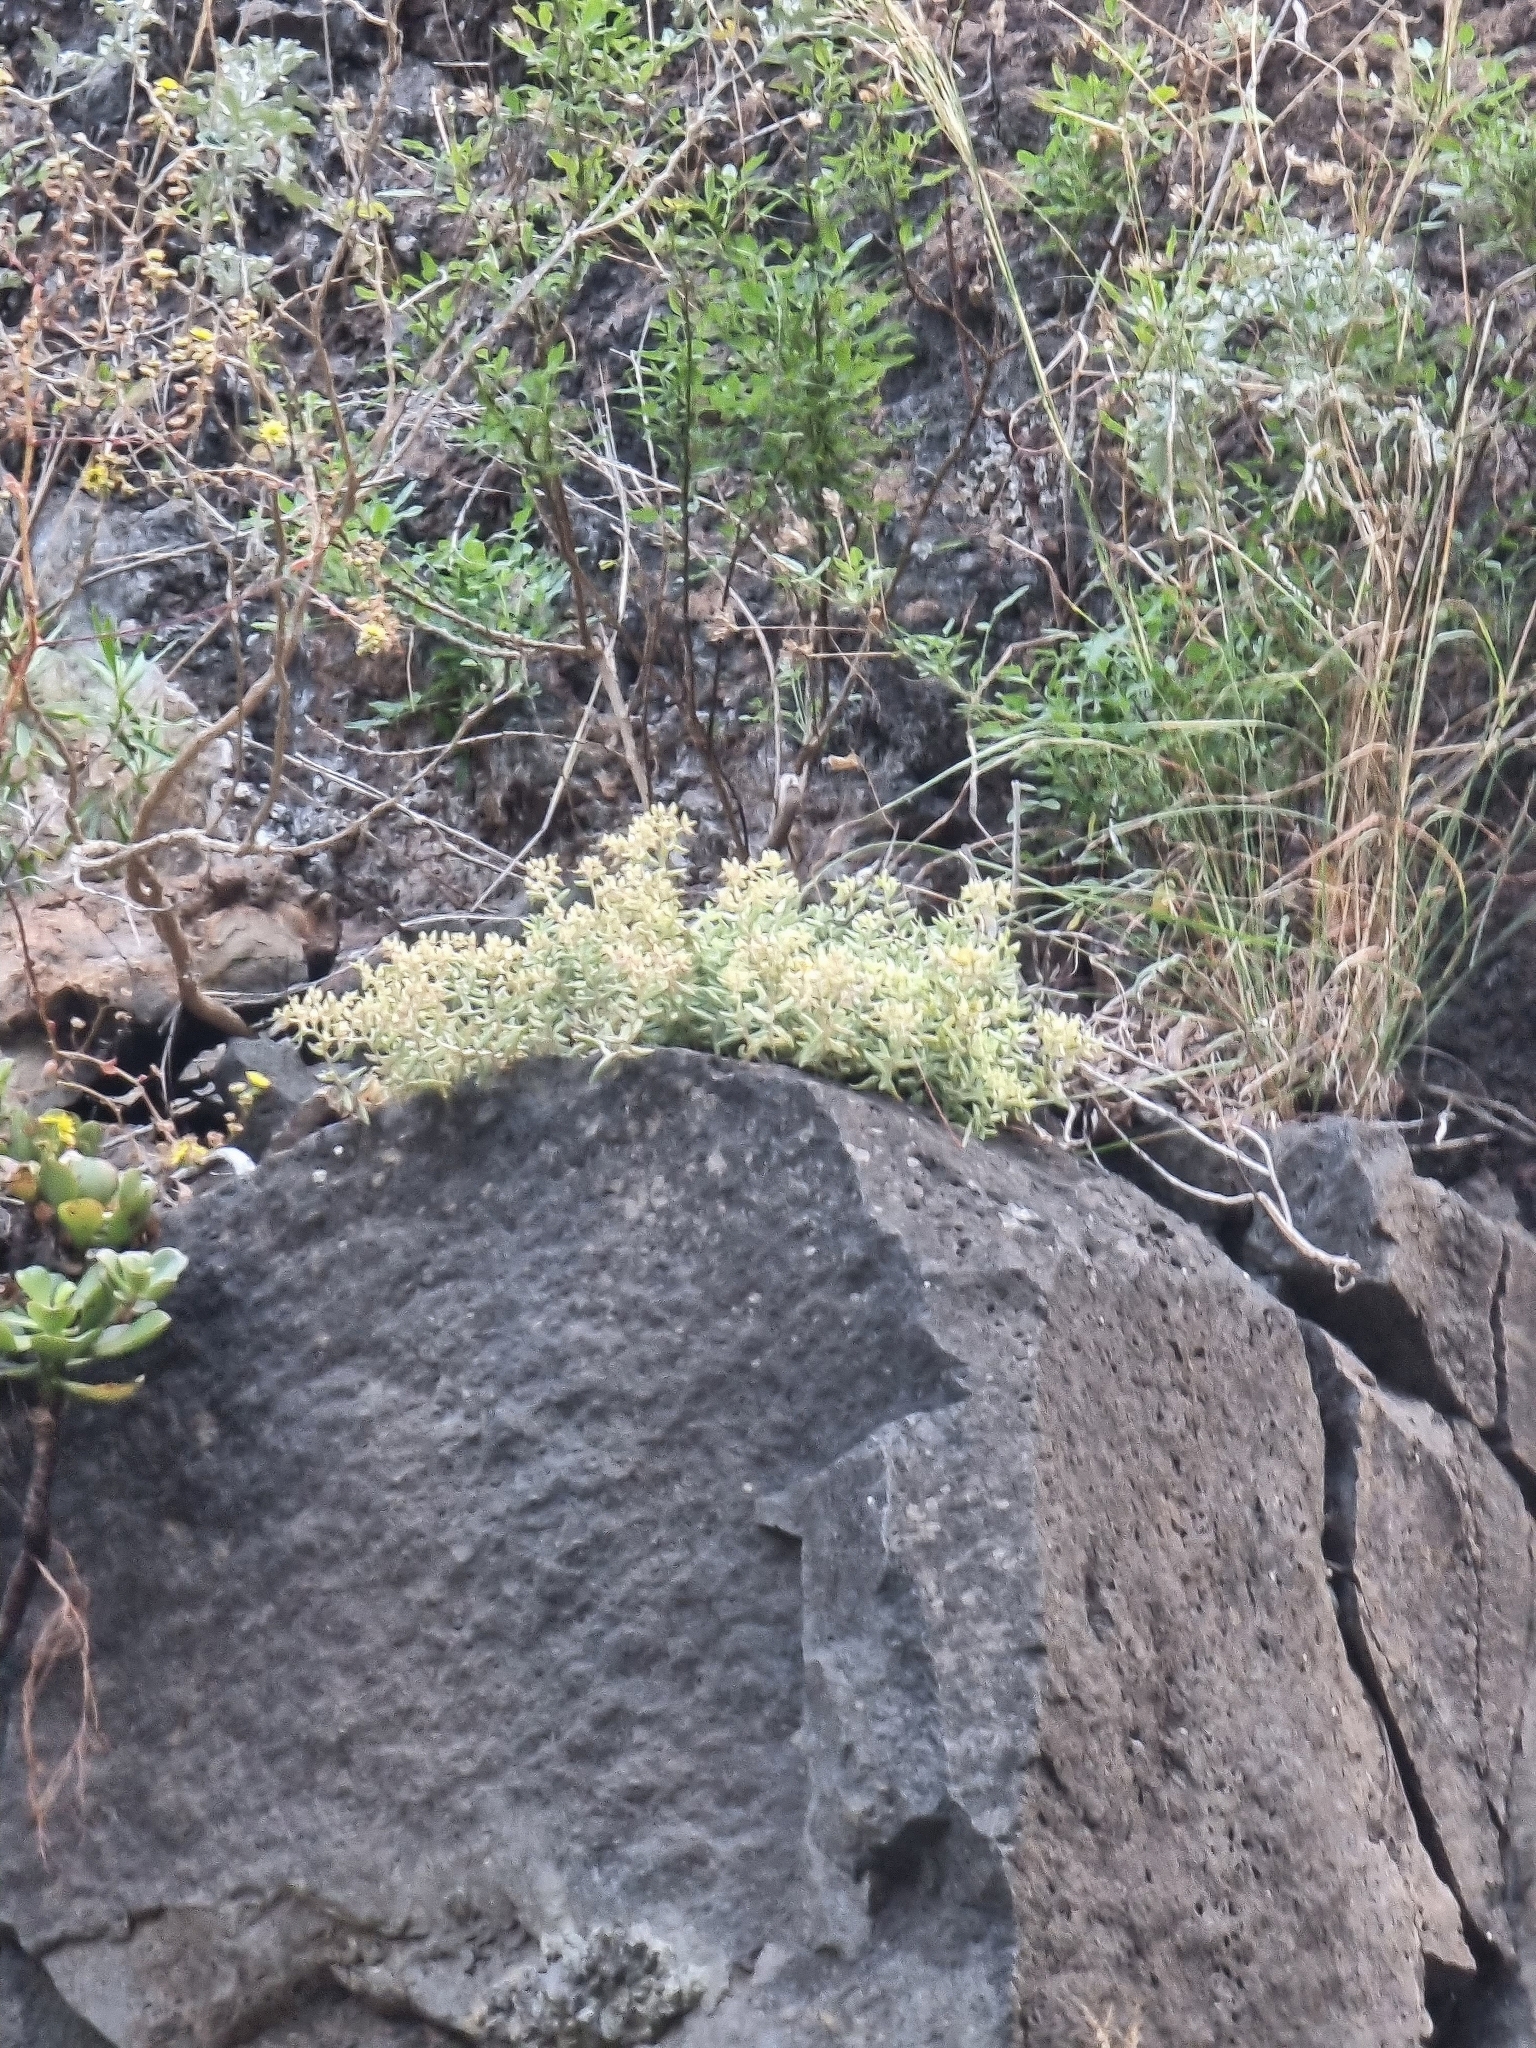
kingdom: Plantae
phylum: Tracheophyta
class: Magnoliopsida
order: Saxifragales
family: Crassulaceae
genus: Sedum
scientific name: Sedum fusiforme
